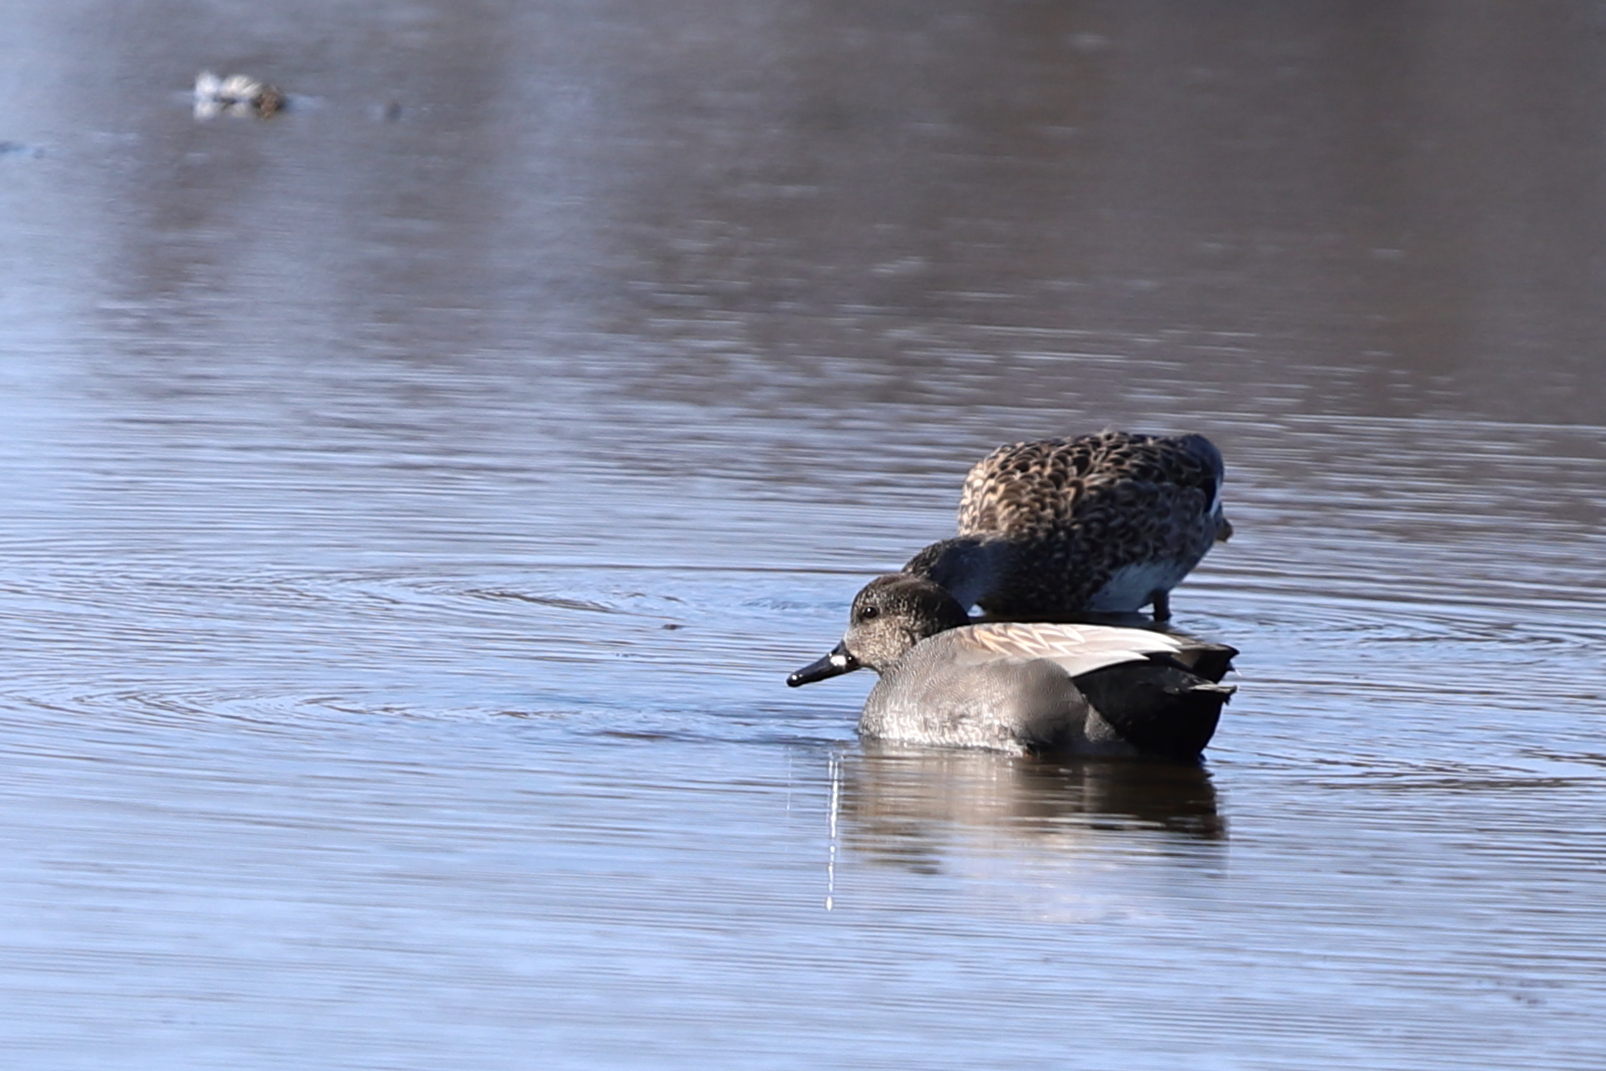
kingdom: Animalia
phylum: Chordata
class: Aves
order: Anseriformes
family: Anatidae
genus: Mareca
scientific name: Mareca strepera
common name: Gadwall
